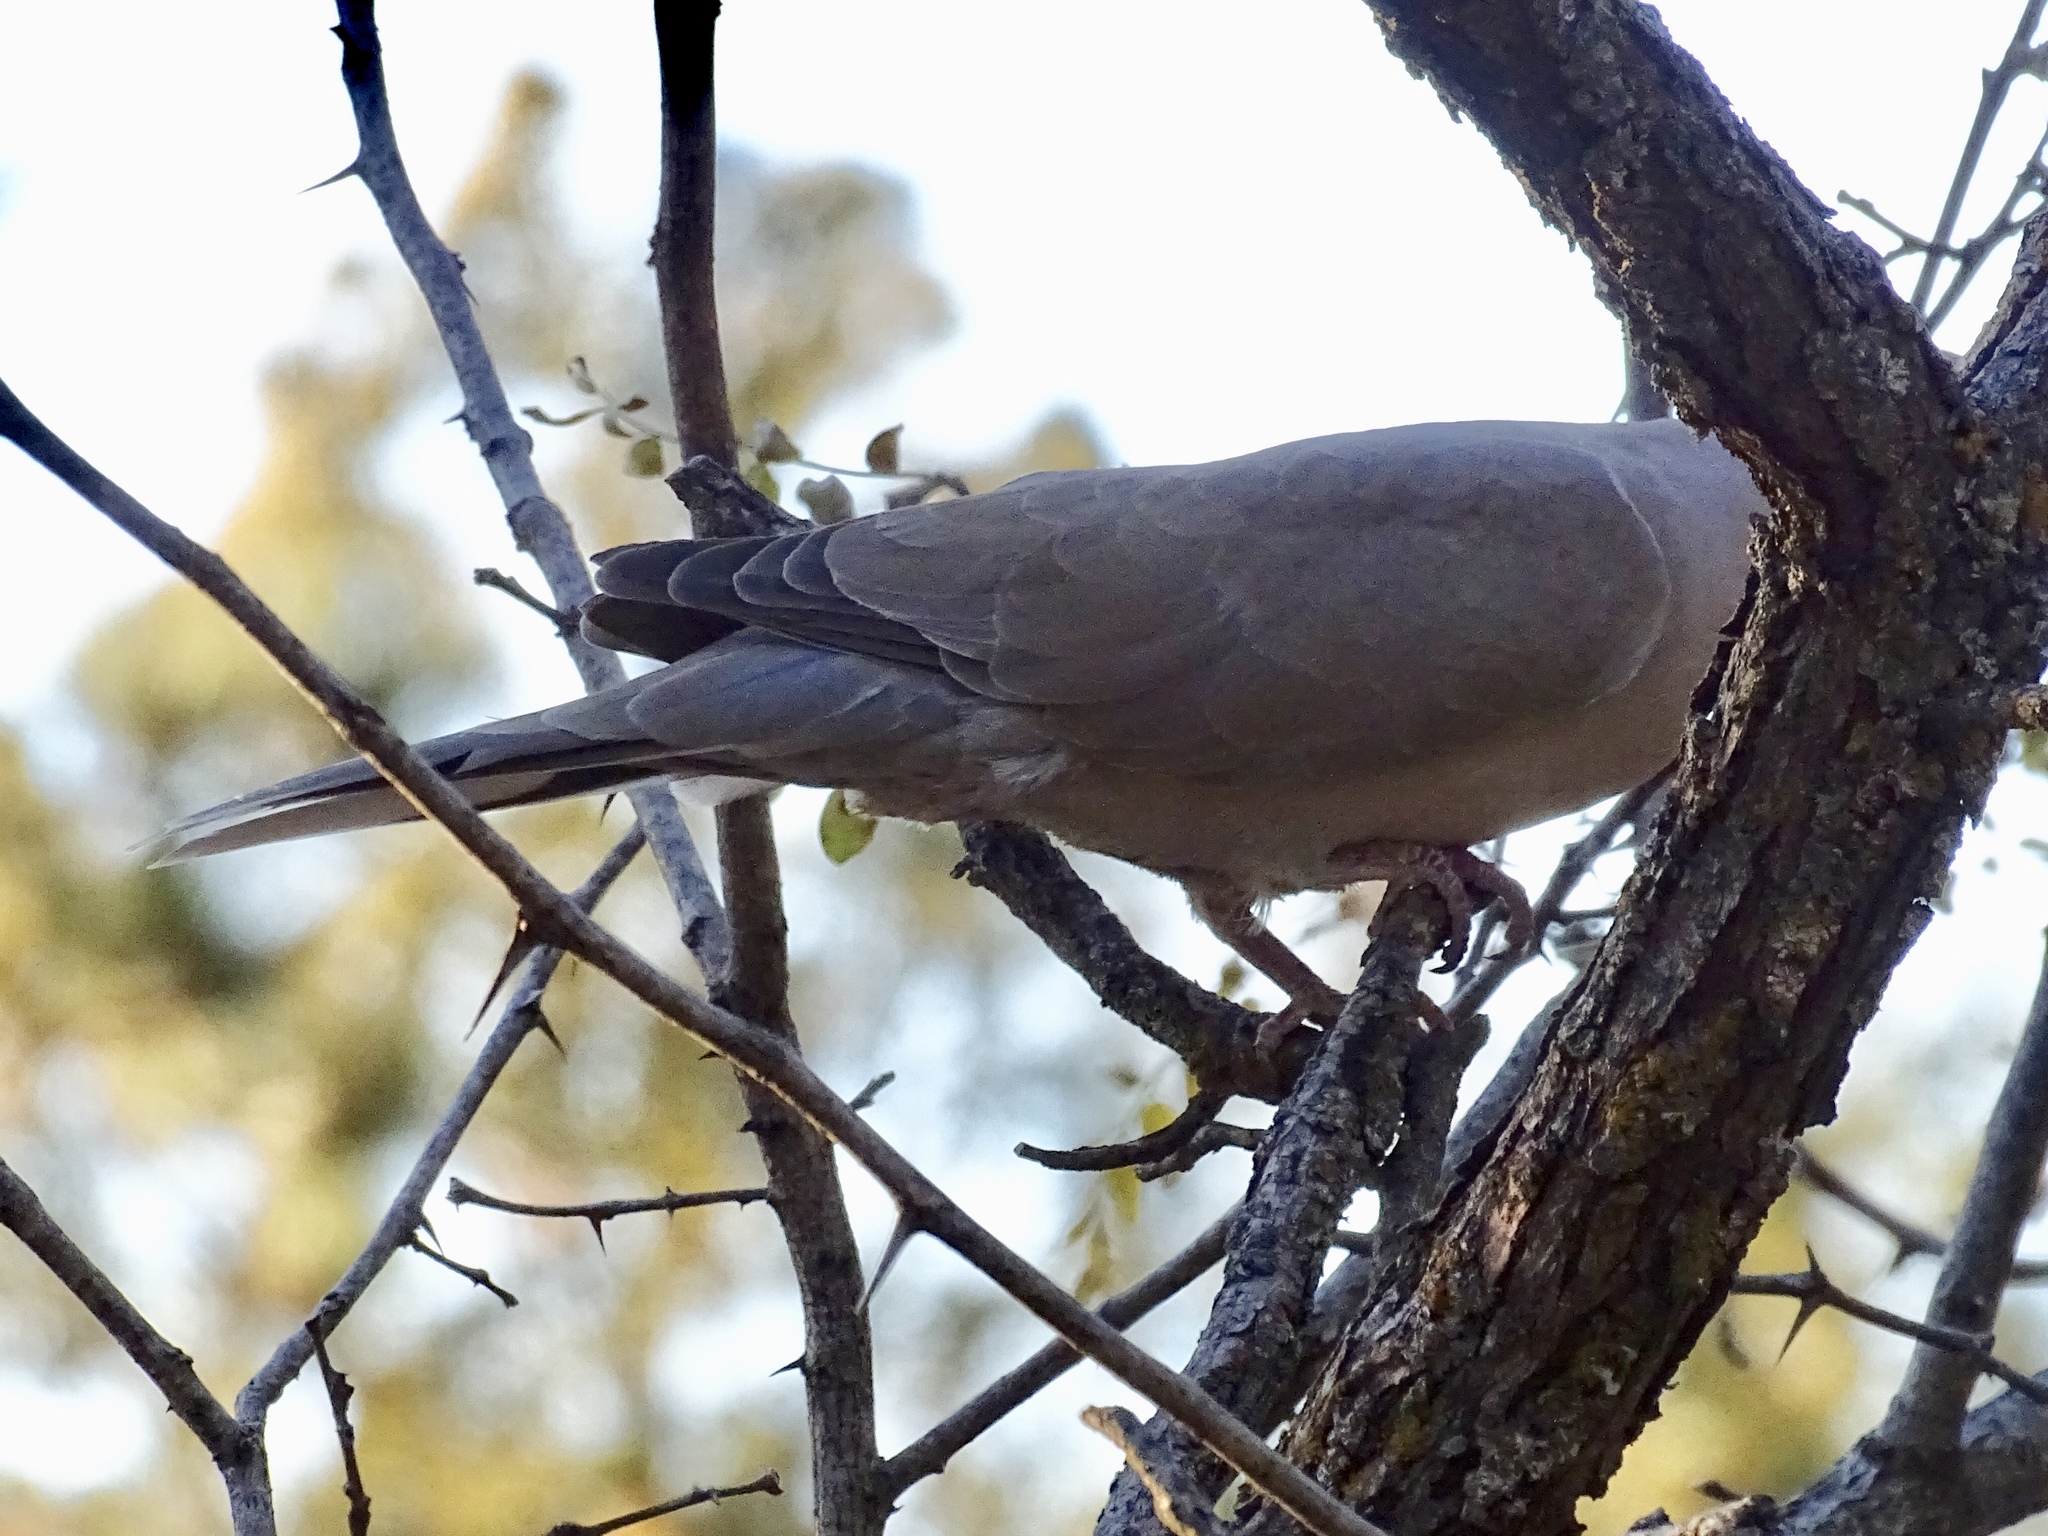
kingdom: Animalia
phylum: Chordata
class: Aves
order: Columbiformes
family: Columbidae
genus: Streptopelia
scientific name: Streptopelia decaocto
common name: Eurasian collared dove
